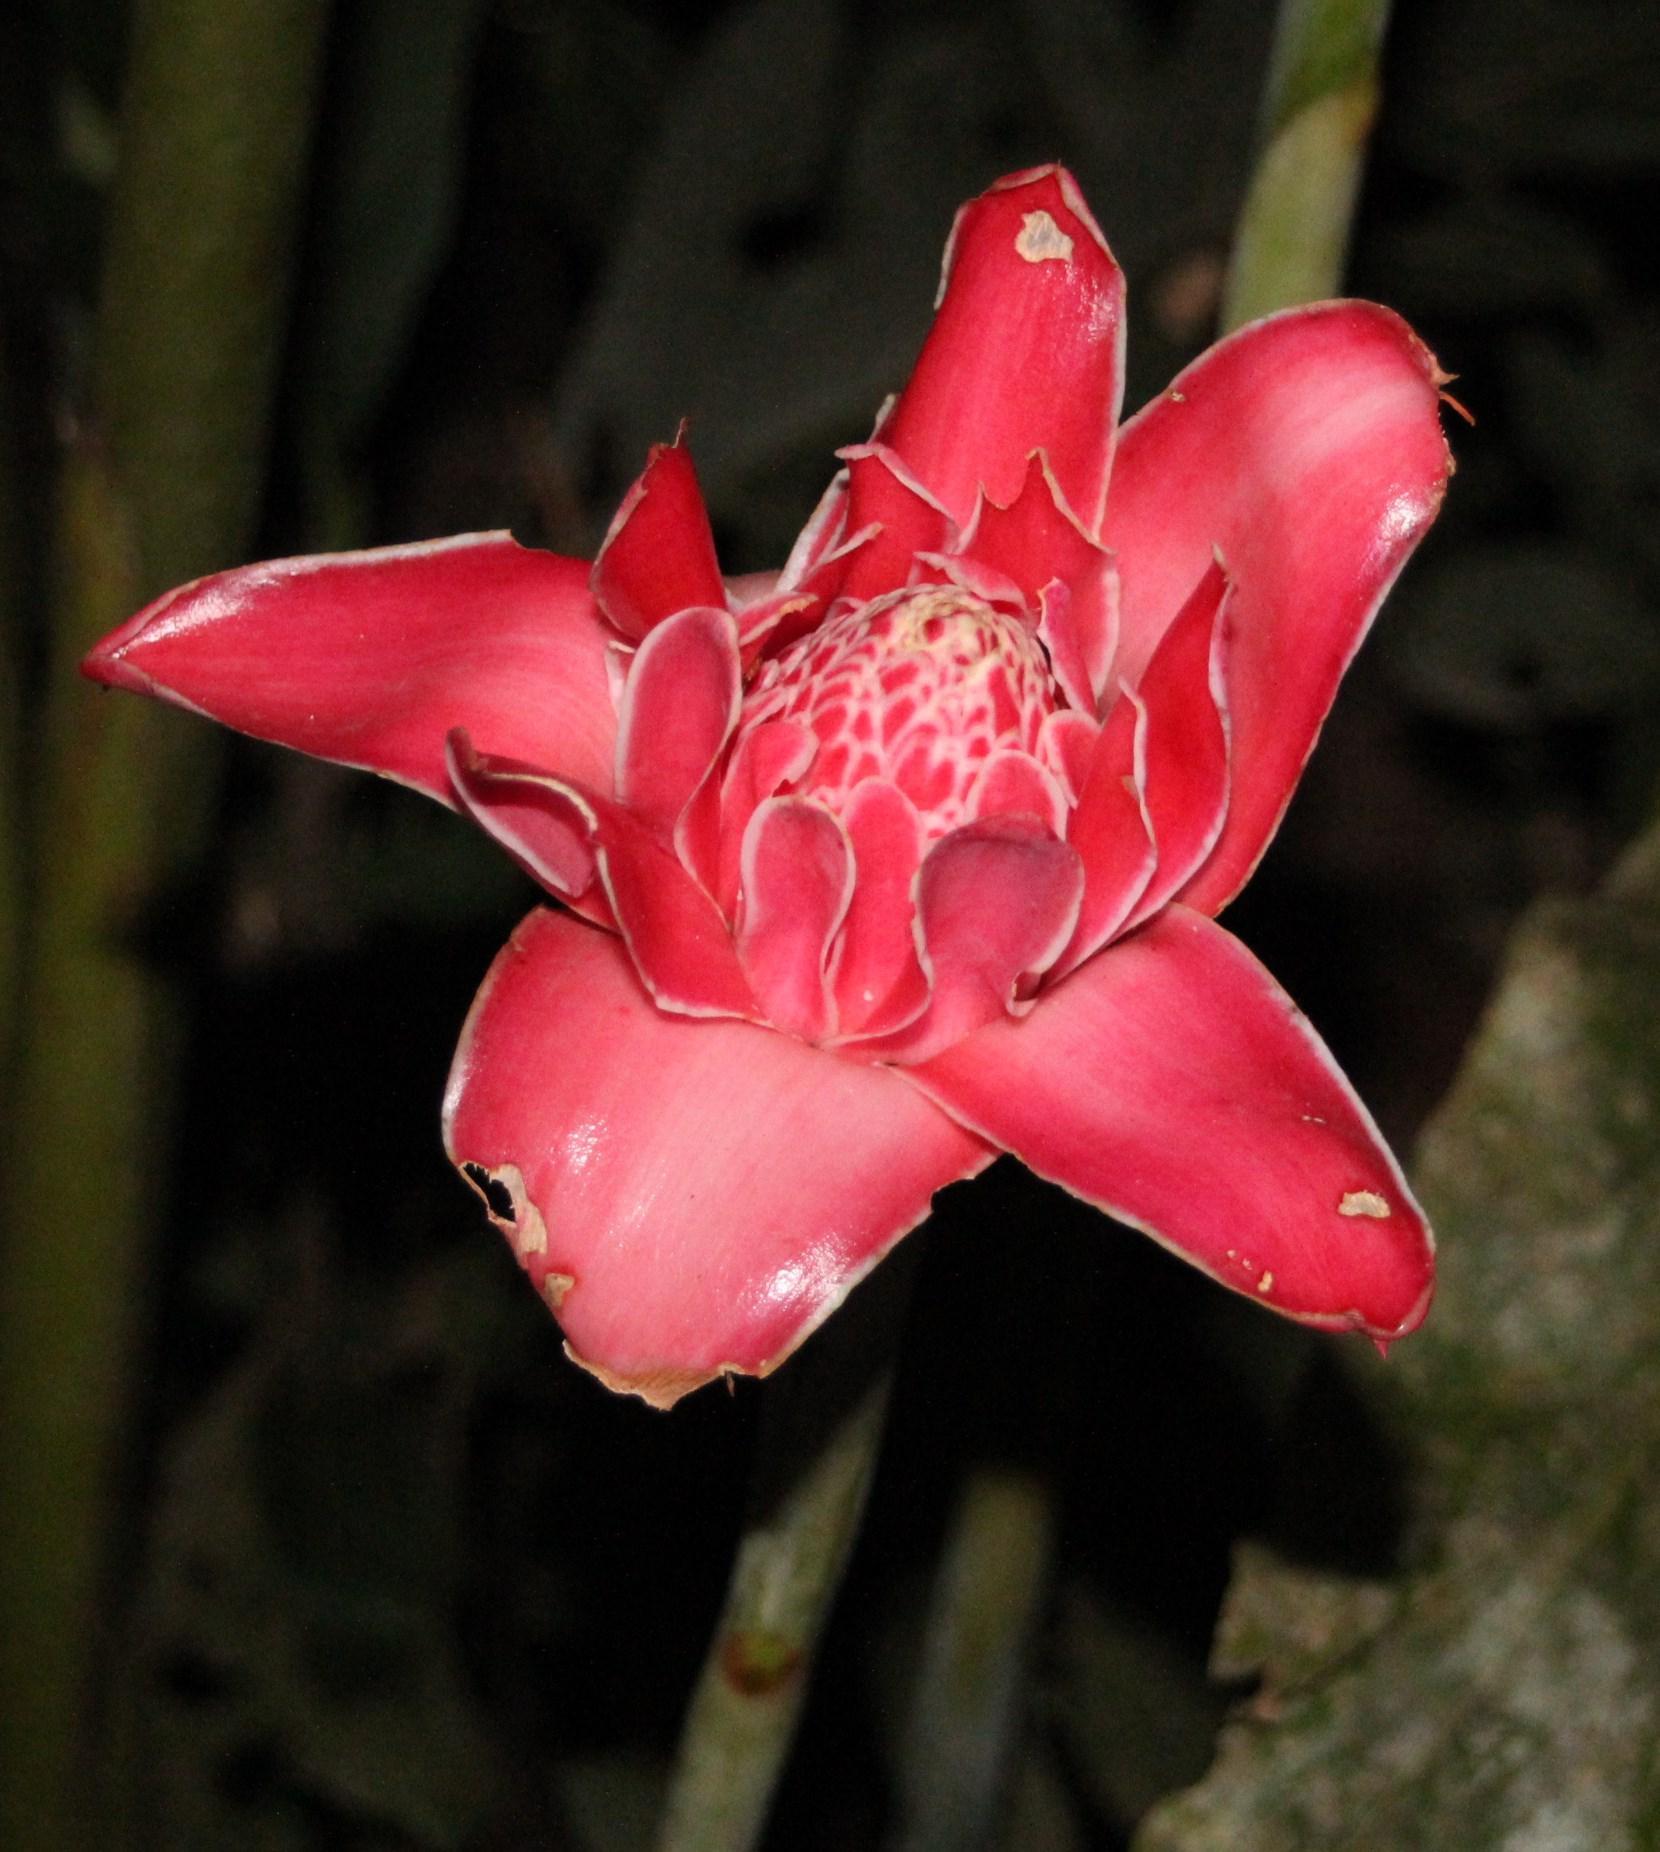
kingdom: Plantae
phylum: Tracheophyta
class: Liliopsida
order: Zingiberales
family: Zingiberaceae
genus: Etlingera
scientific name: Etlingera elatior
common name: Philippine waxflower
